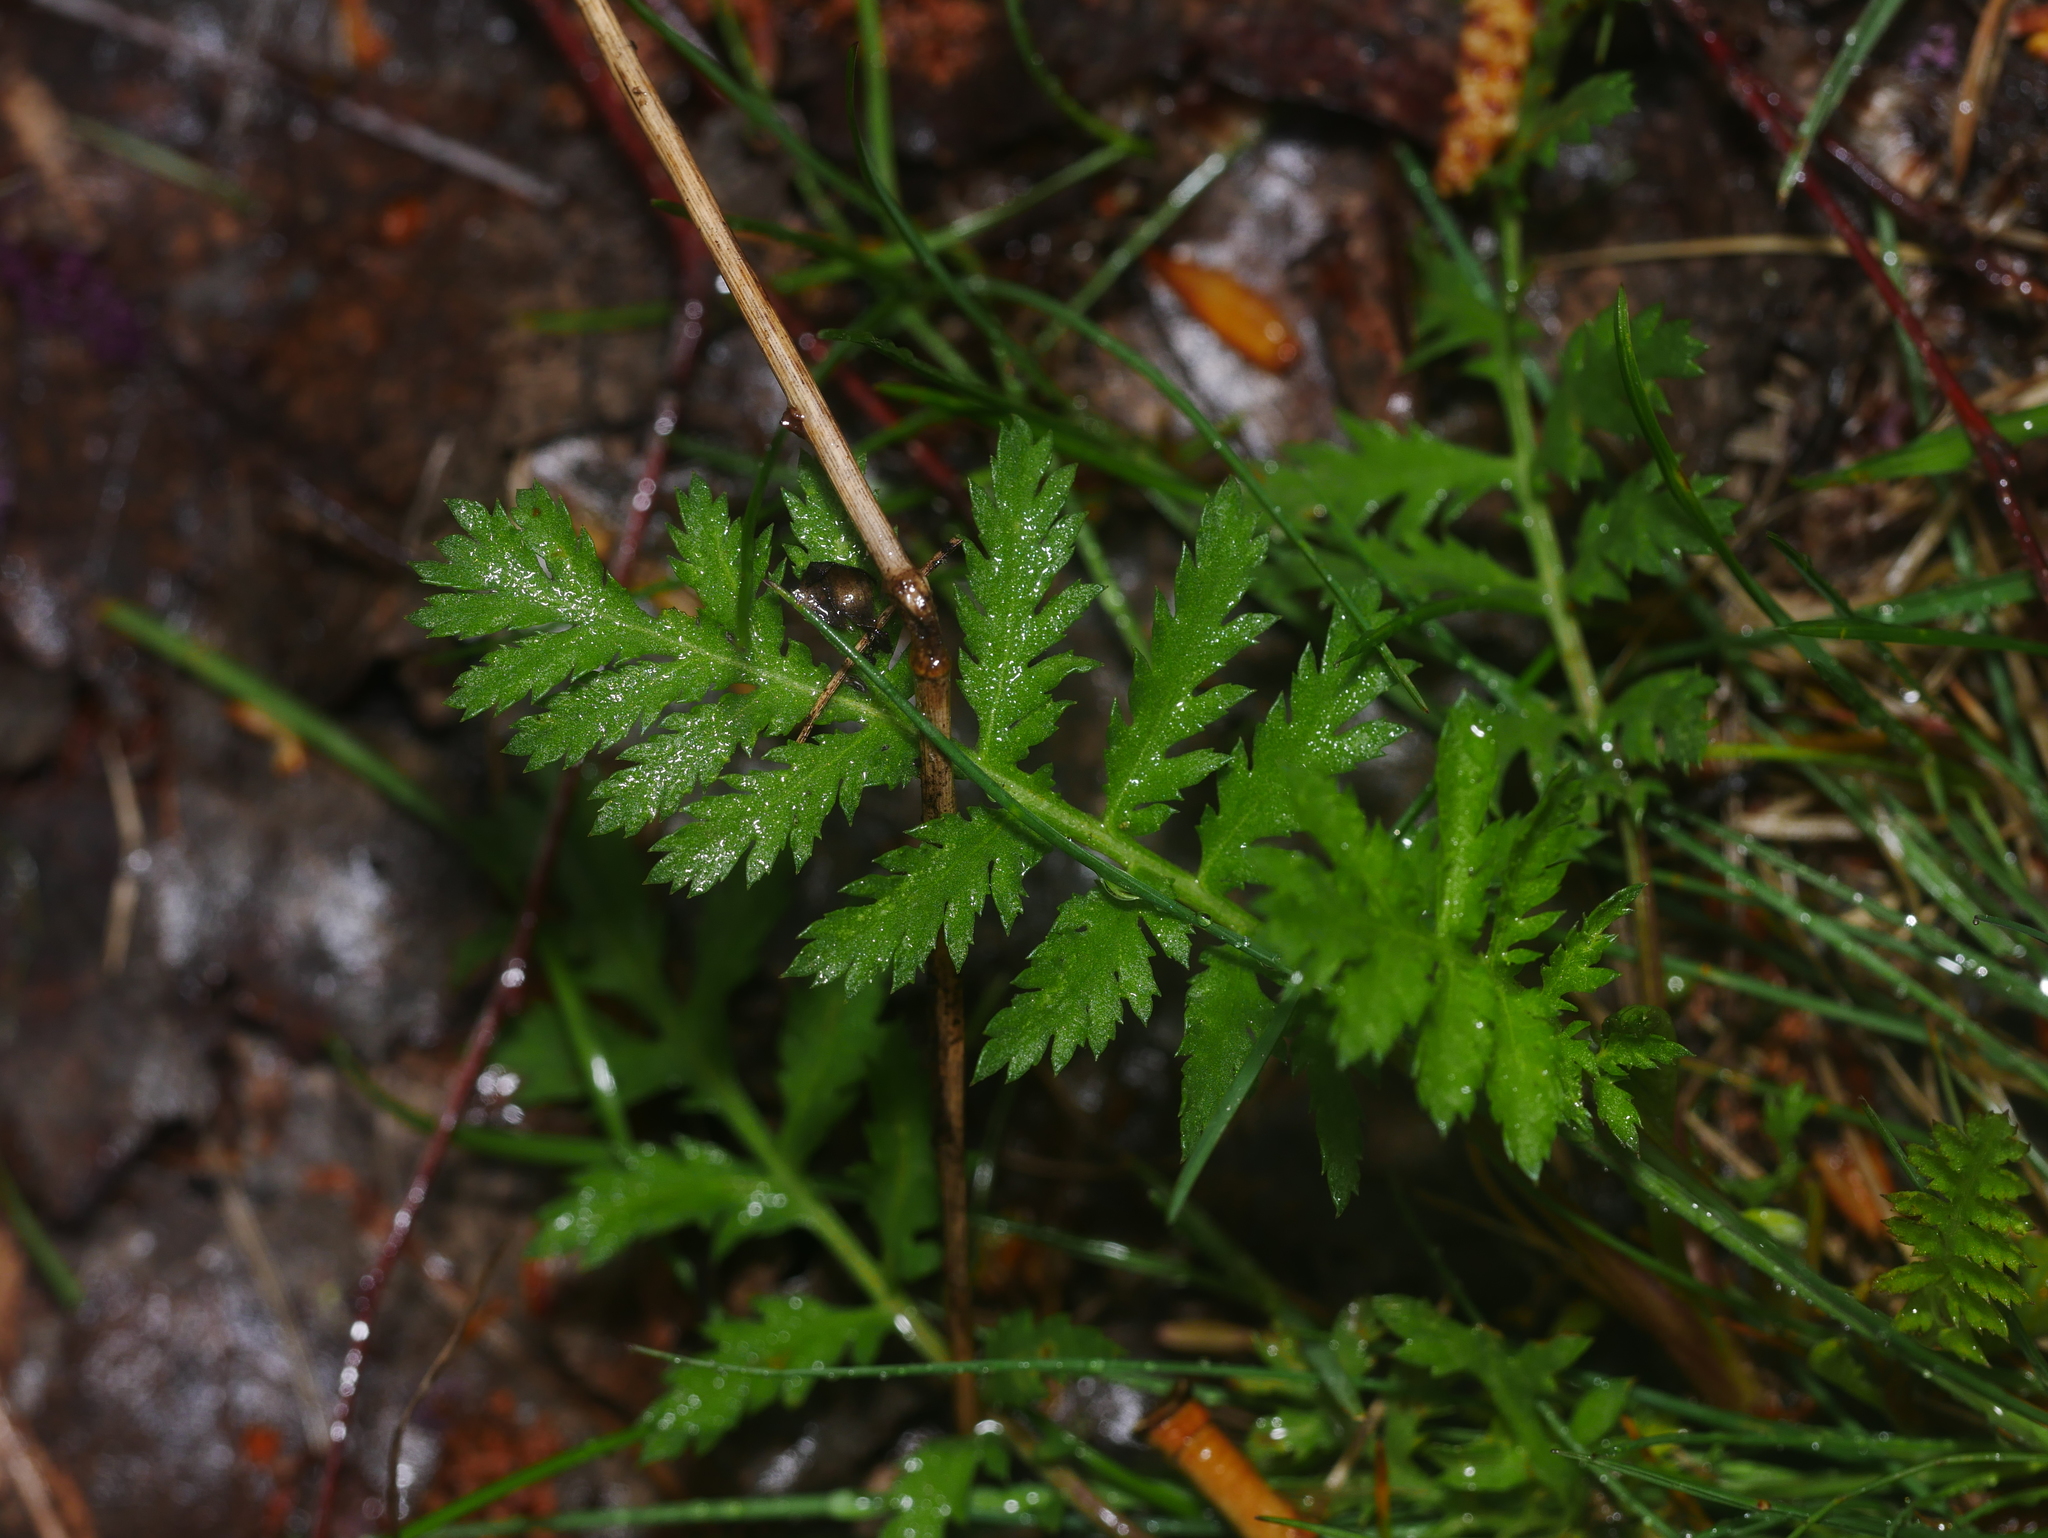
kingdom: Plantae
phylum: Tracheophyta
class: Magnoliopsida
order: Asterales
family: Asteraceae
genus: Tanacetum
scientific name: Tanacetum vulgare
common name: Common tansy
